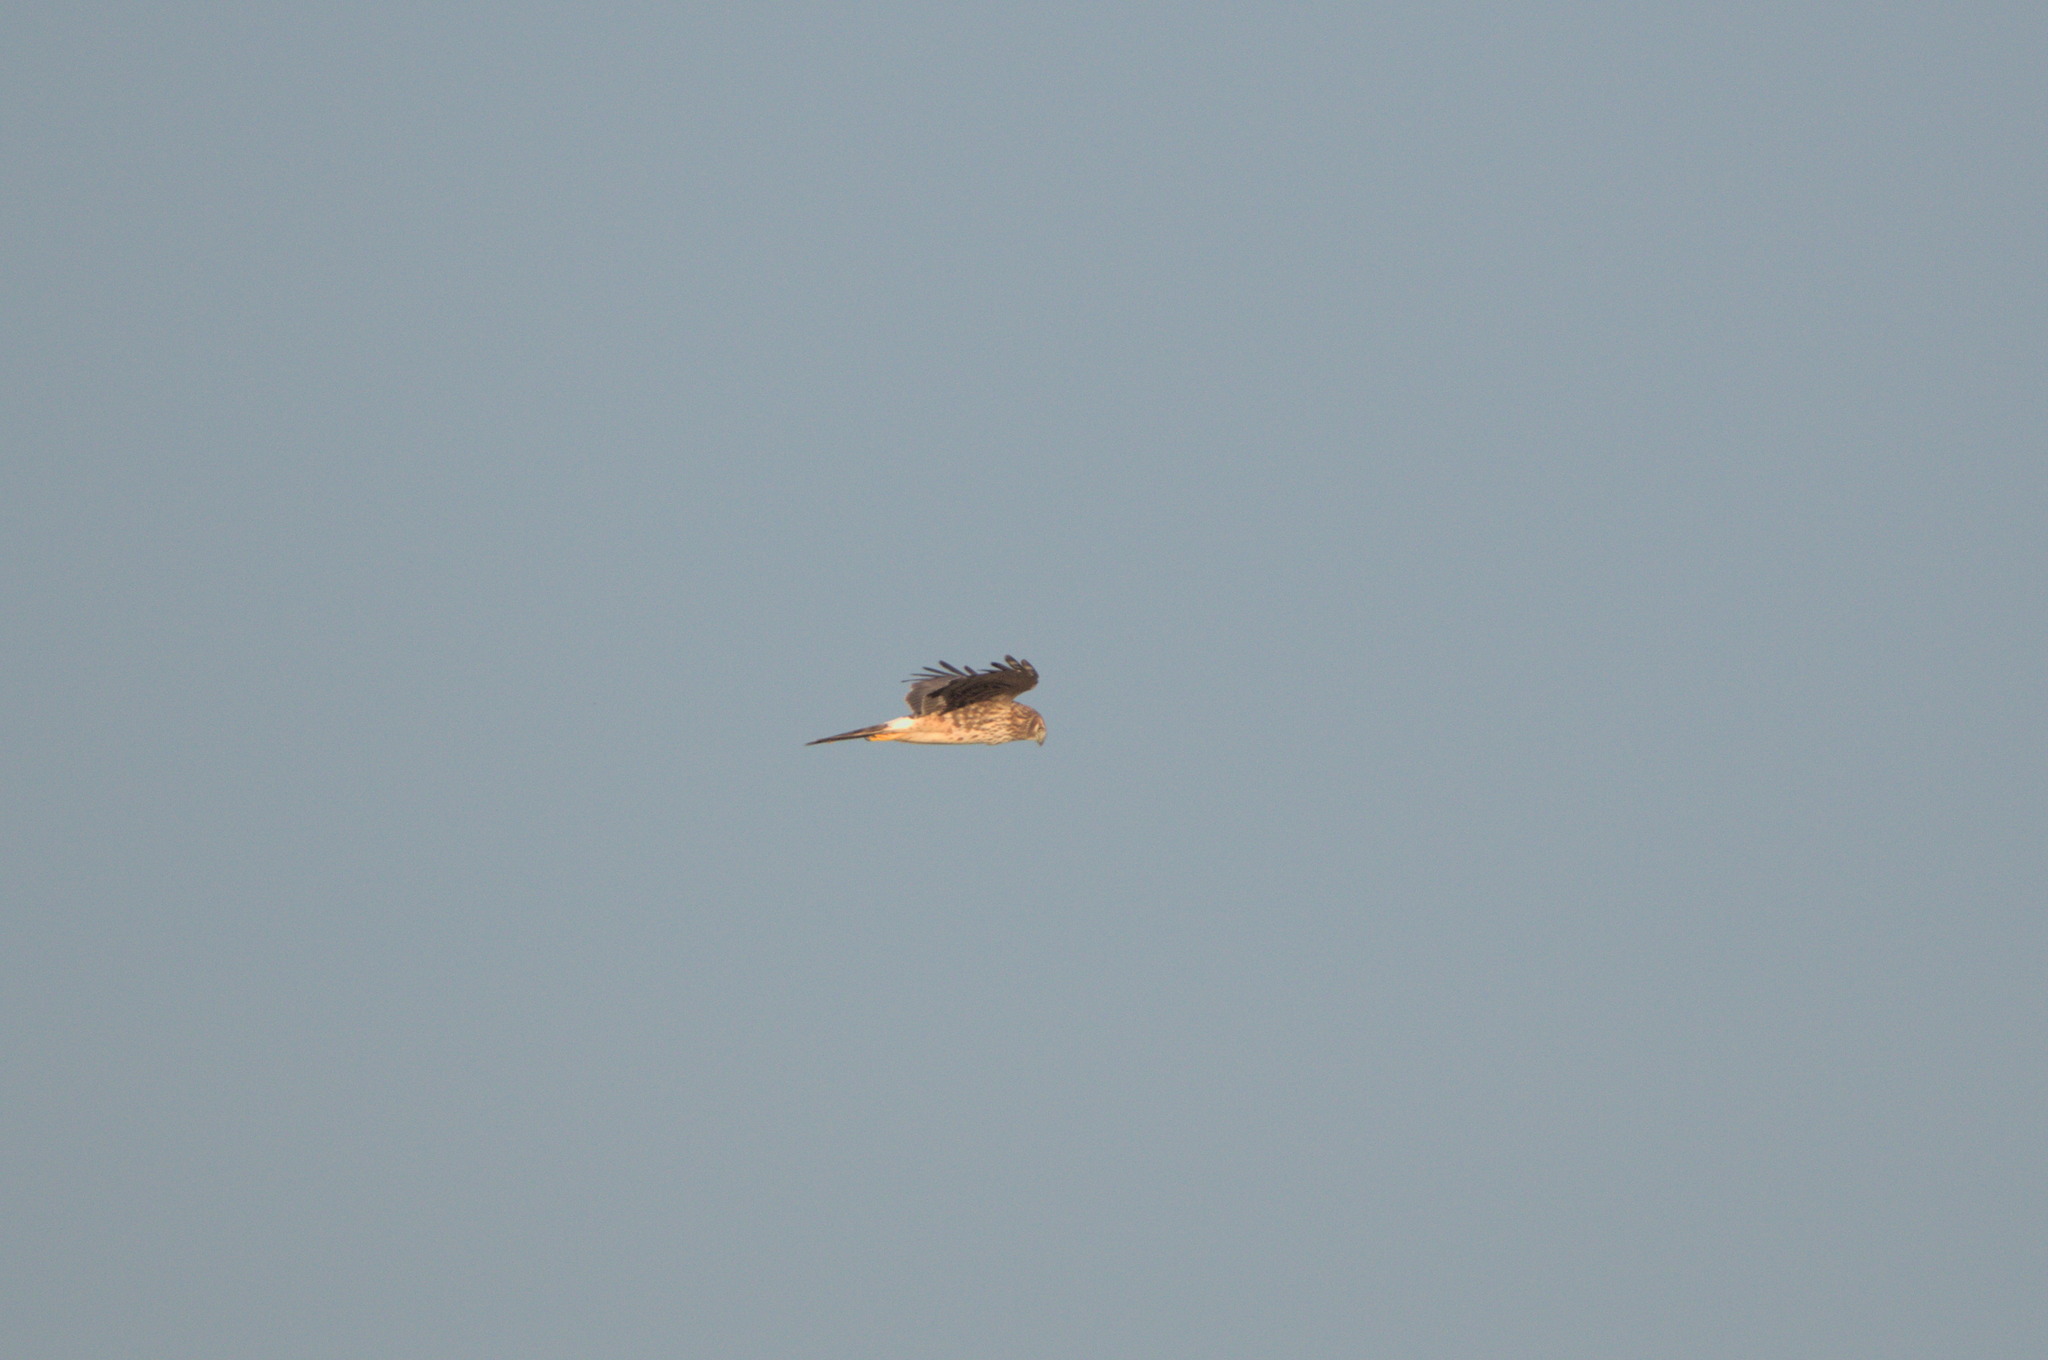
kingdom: Animalia
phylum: Chordata
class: Aves
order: Accipitriformes
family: Accipitridae
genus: Circus
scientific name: Circus cyaneus
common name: Hen harrier
